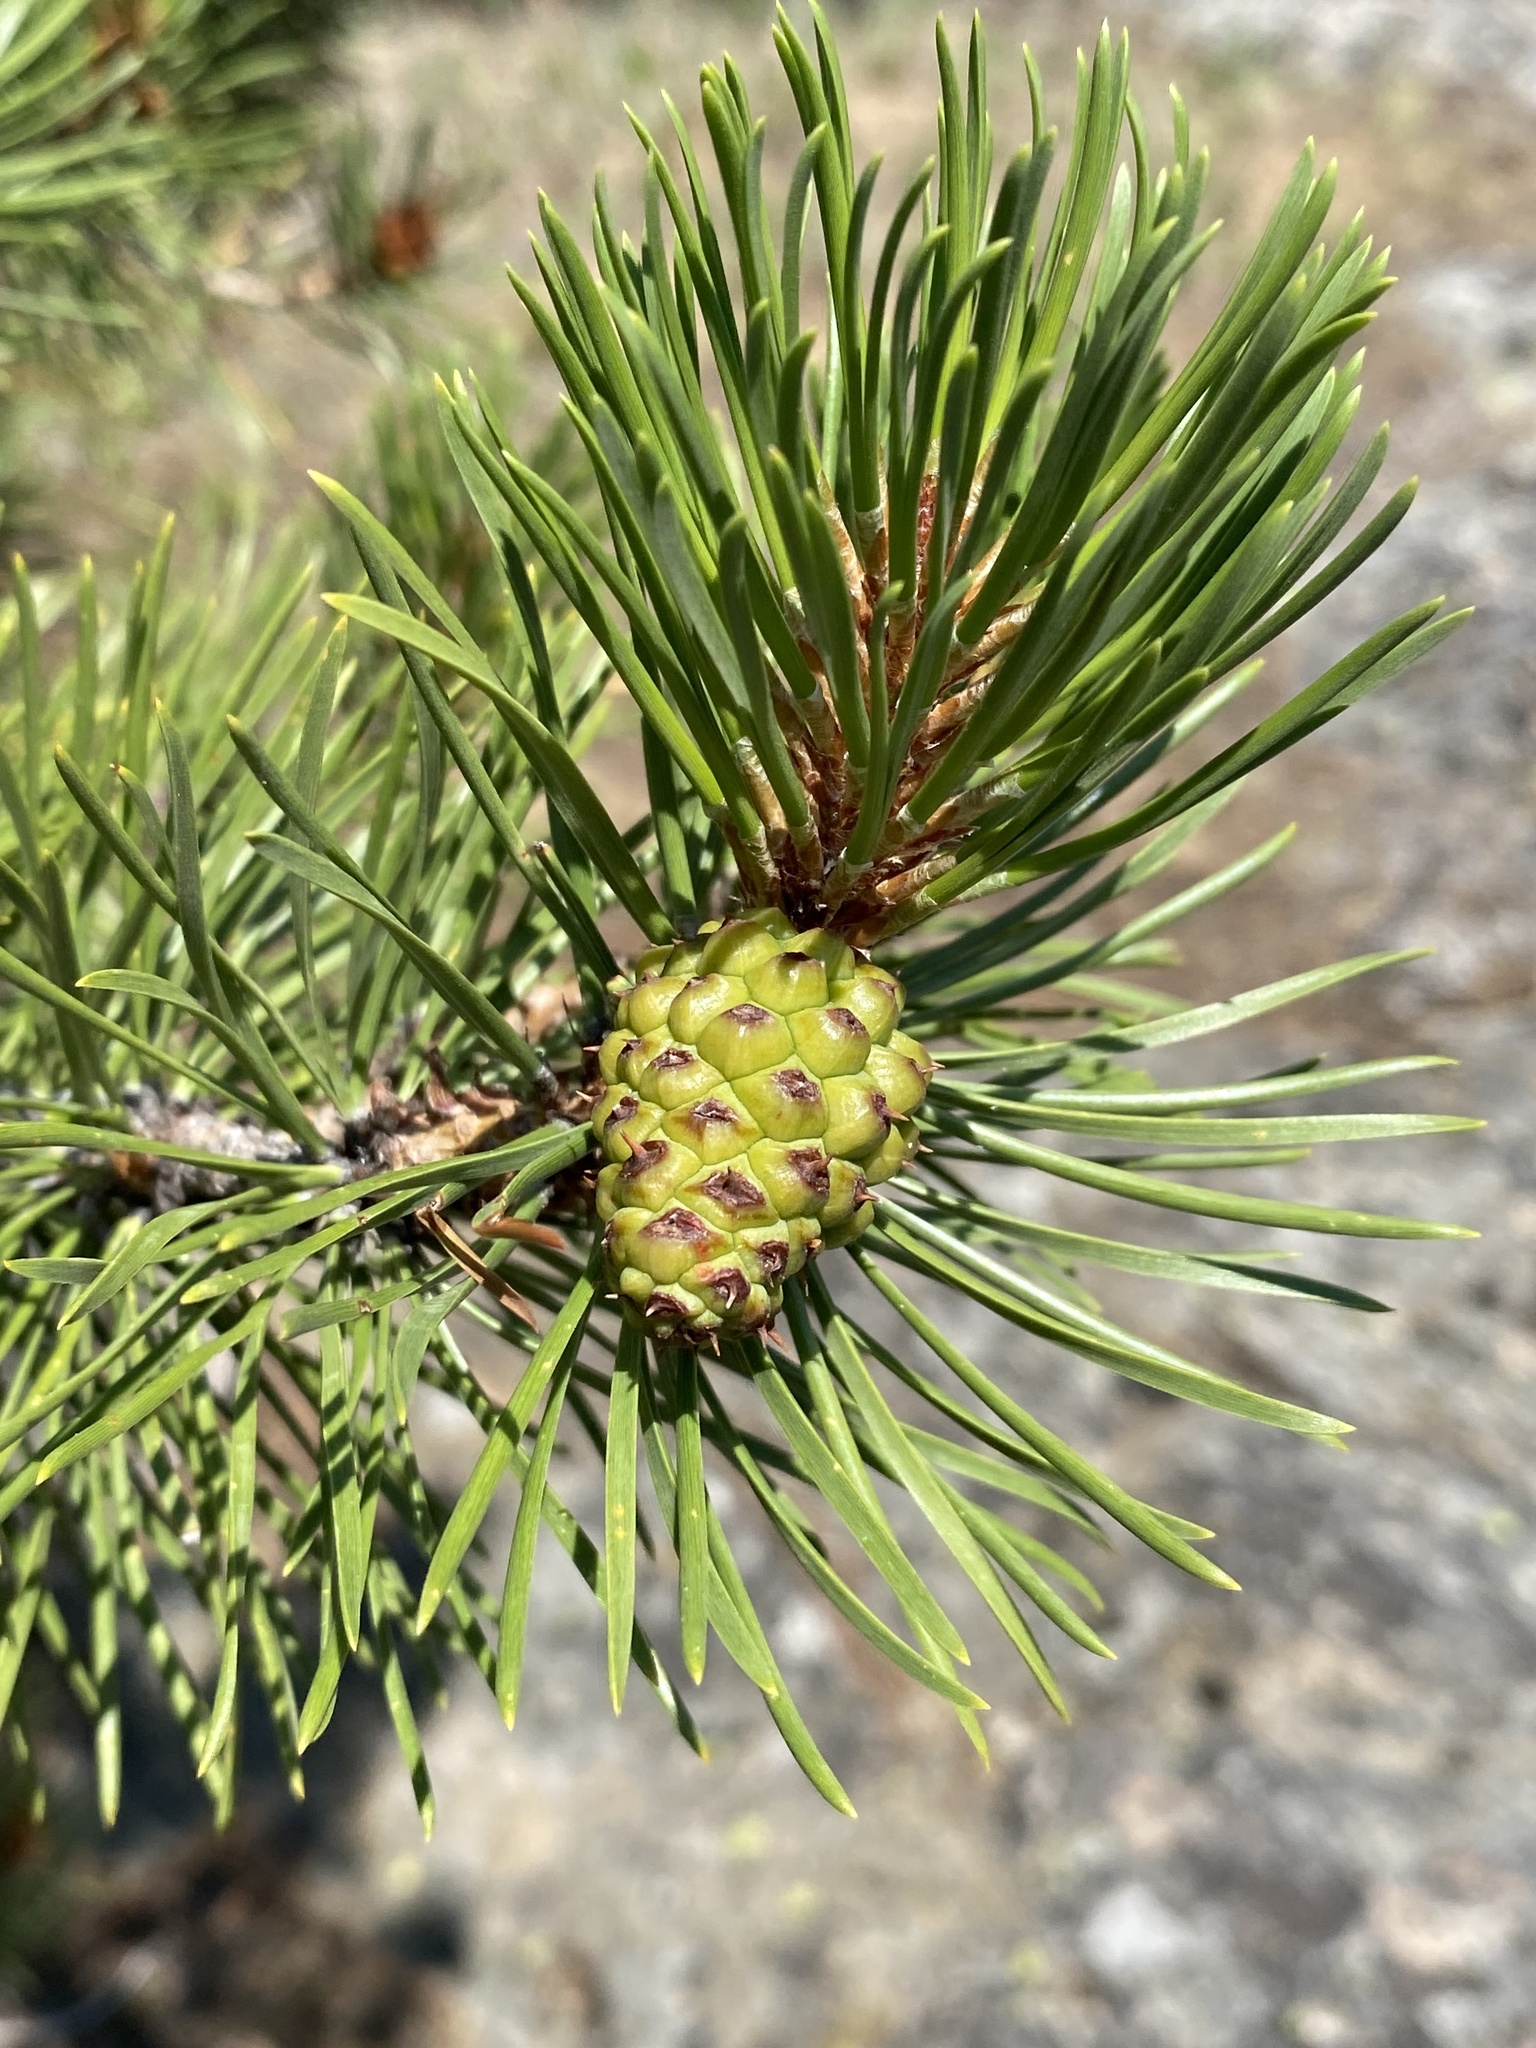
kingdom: Plantae
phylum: Tracheophyta
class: Pinopsida
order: Pinales
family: Pinaceae
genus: Pinus
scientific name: Pinus contorta
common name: Lodgepole pine
